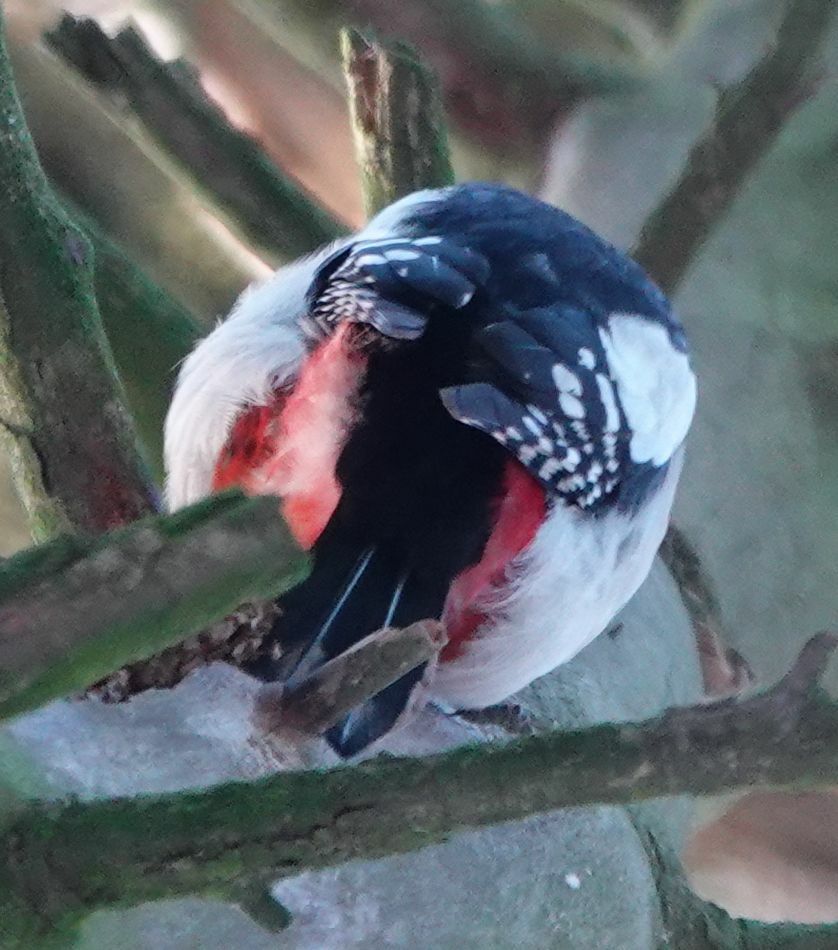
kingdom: Animalia
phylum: Chordata
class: Aves
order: Piciformes
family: Picidae
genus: Dendrocopos
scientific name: Dendrocopos major
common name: Great spotted woodpecker
